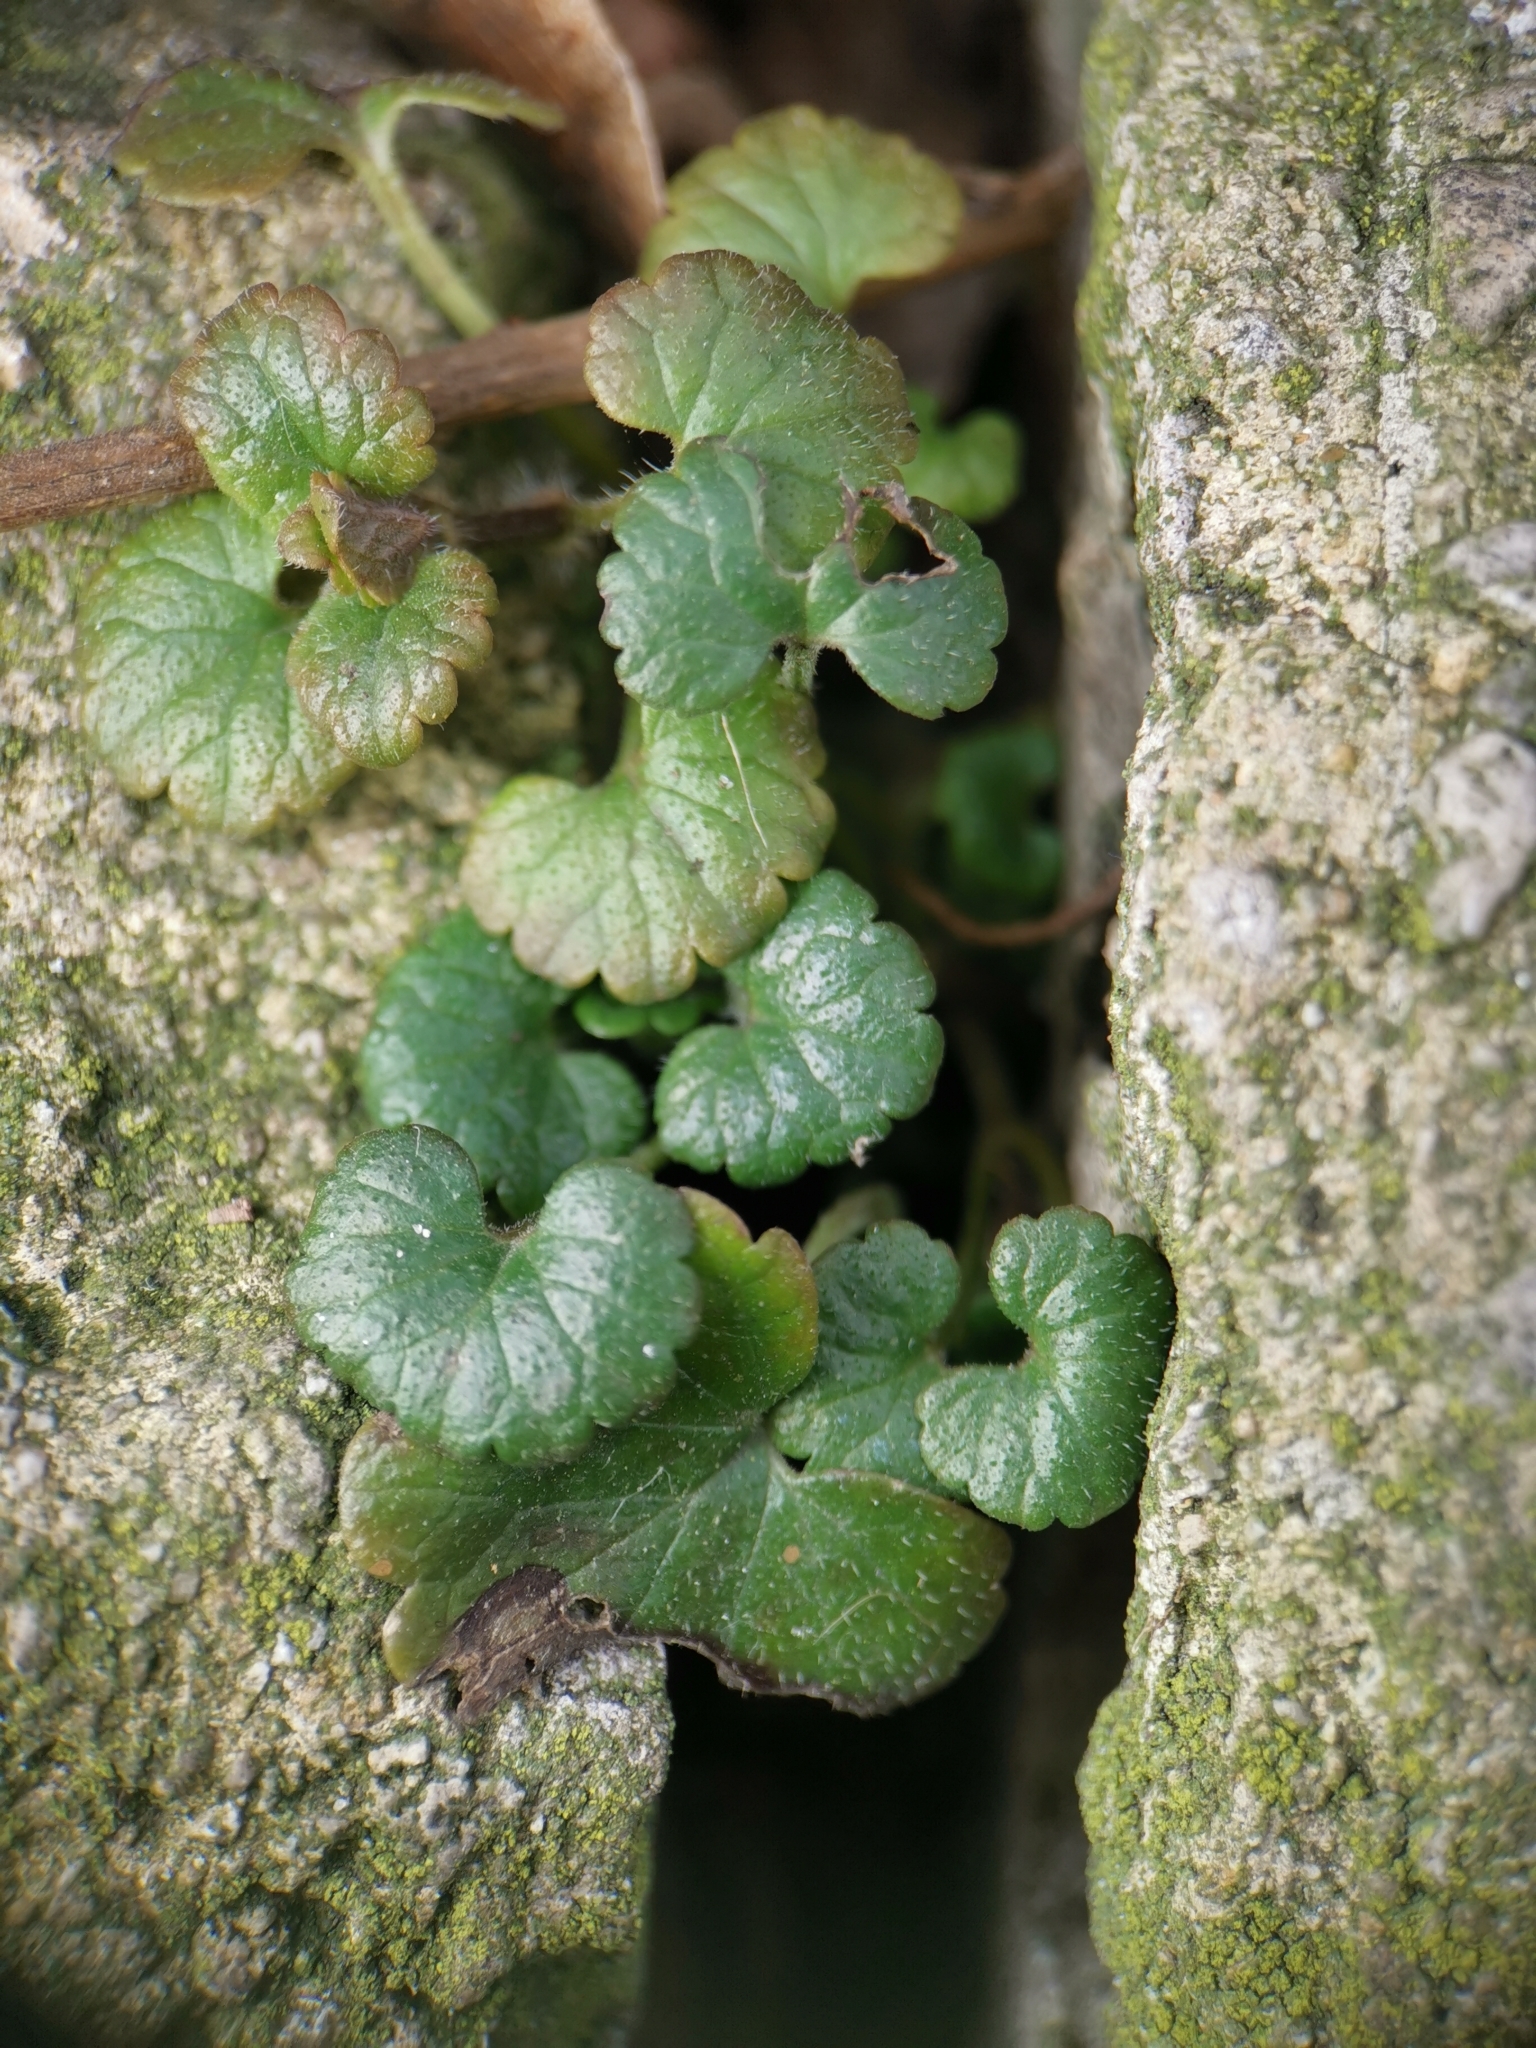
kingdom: Plantae
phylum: Tracheophyta
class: Magnoliopsida
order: Lamiales
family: Lamiaceae
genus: Glechoma
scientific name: Glechoma hederacea
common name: Ground ivy
